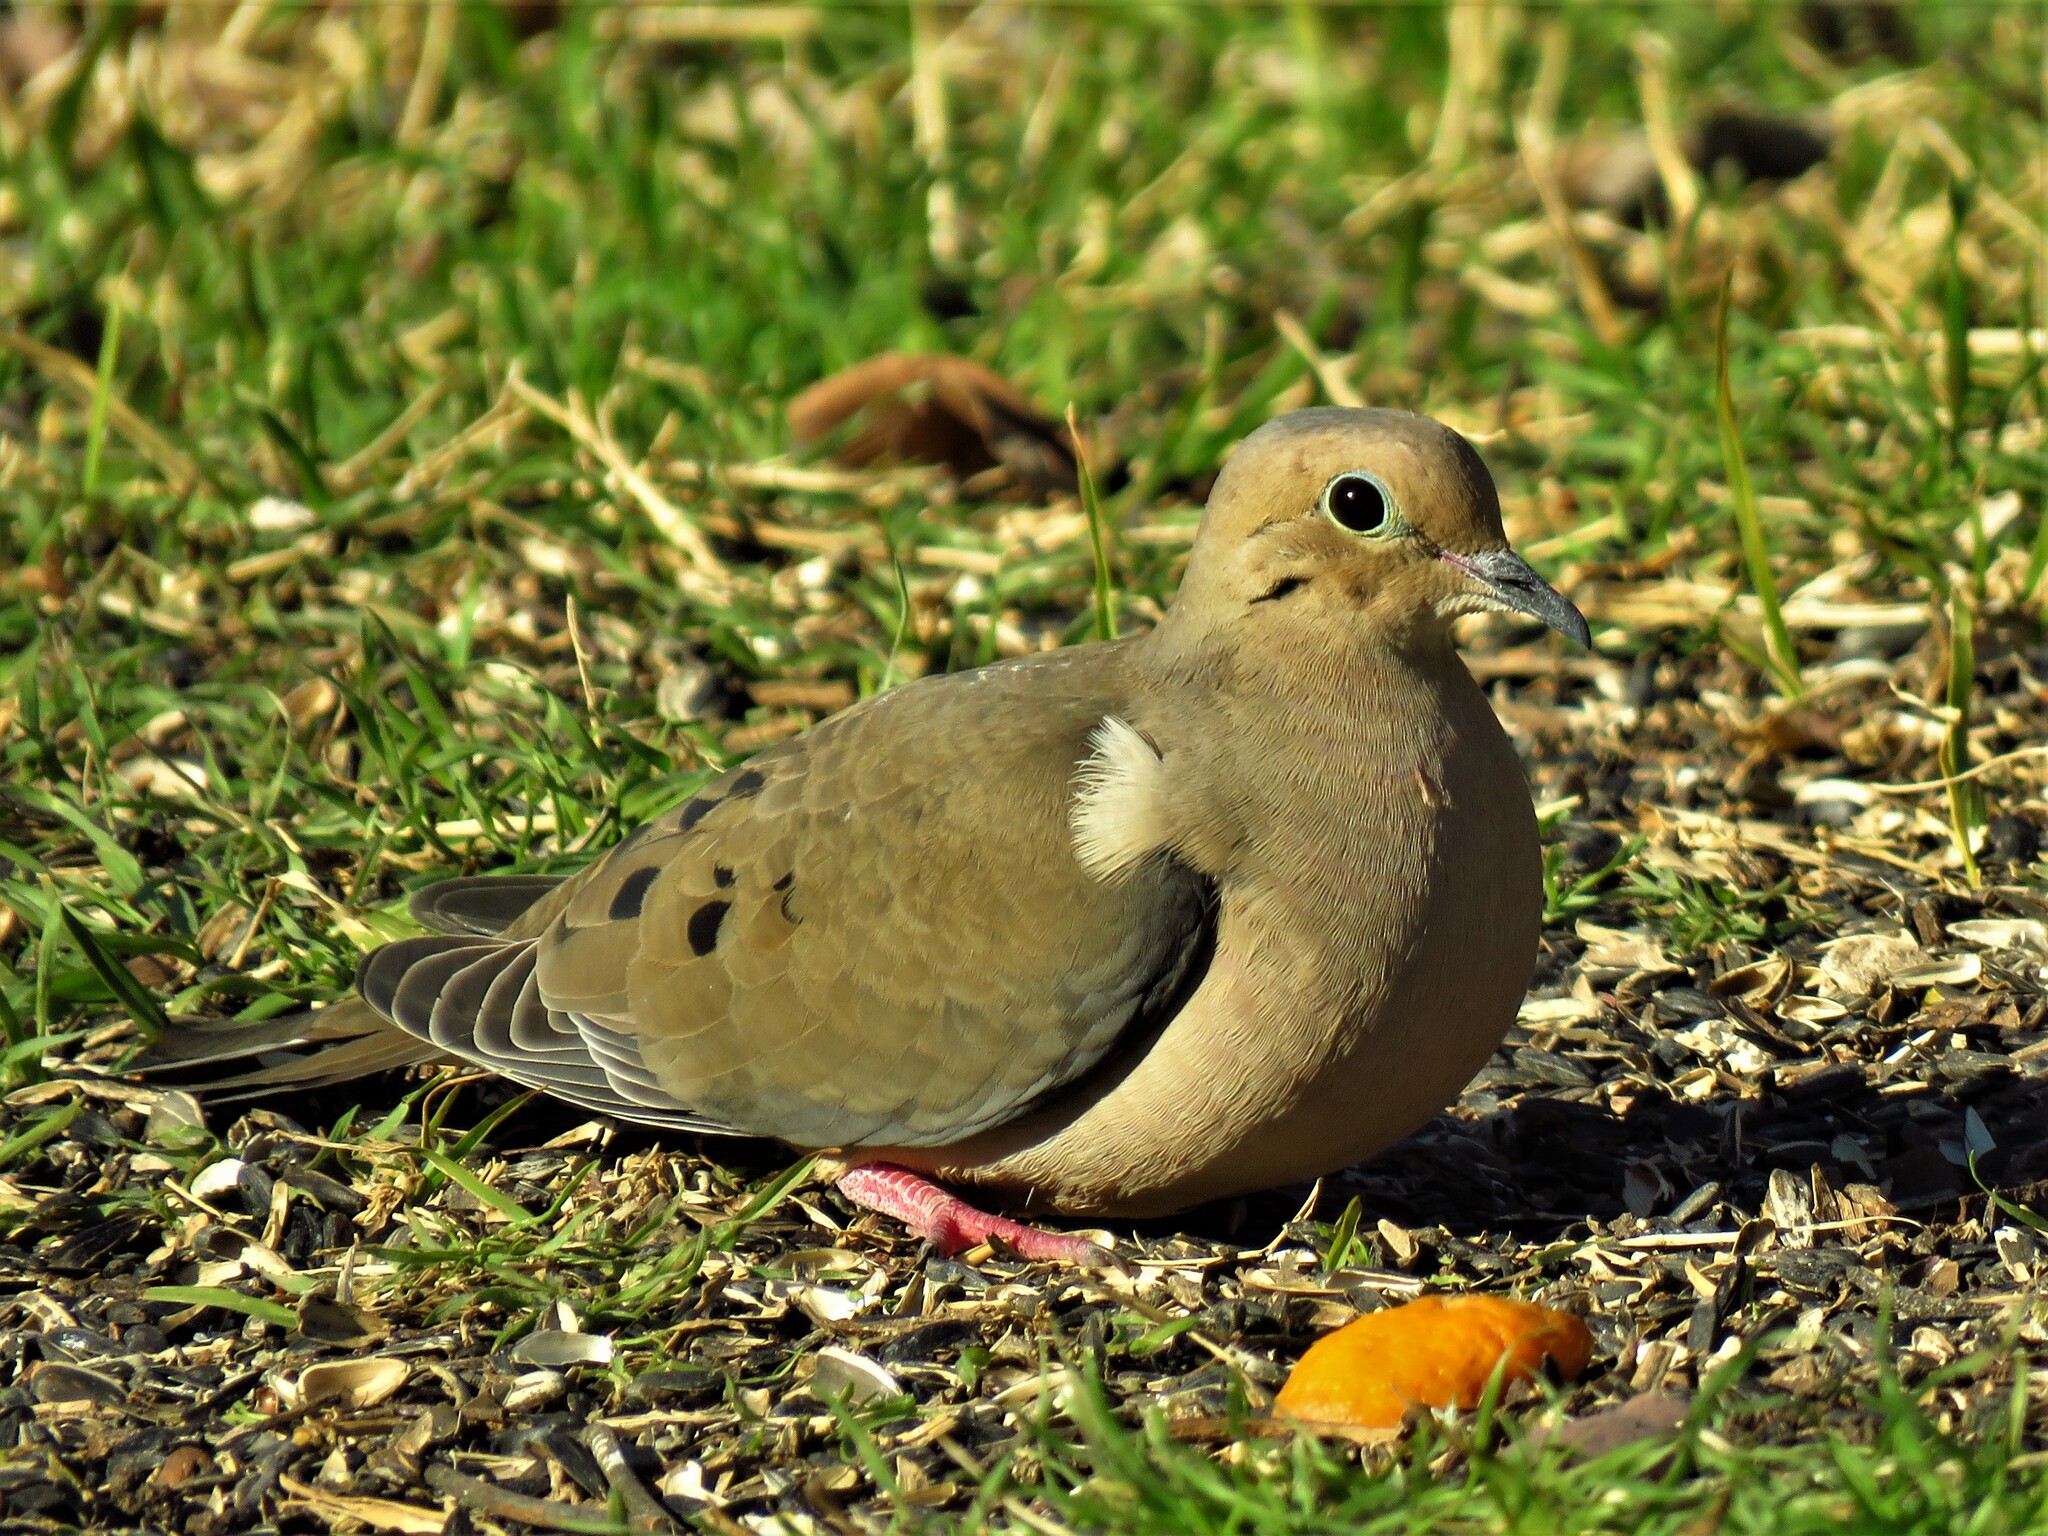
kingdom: Animalia
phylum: Chordata
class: Aves
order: Columbiformes
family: Columbidae
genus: Zenaida
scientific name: Zenaida macroura
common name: Mourning dove
